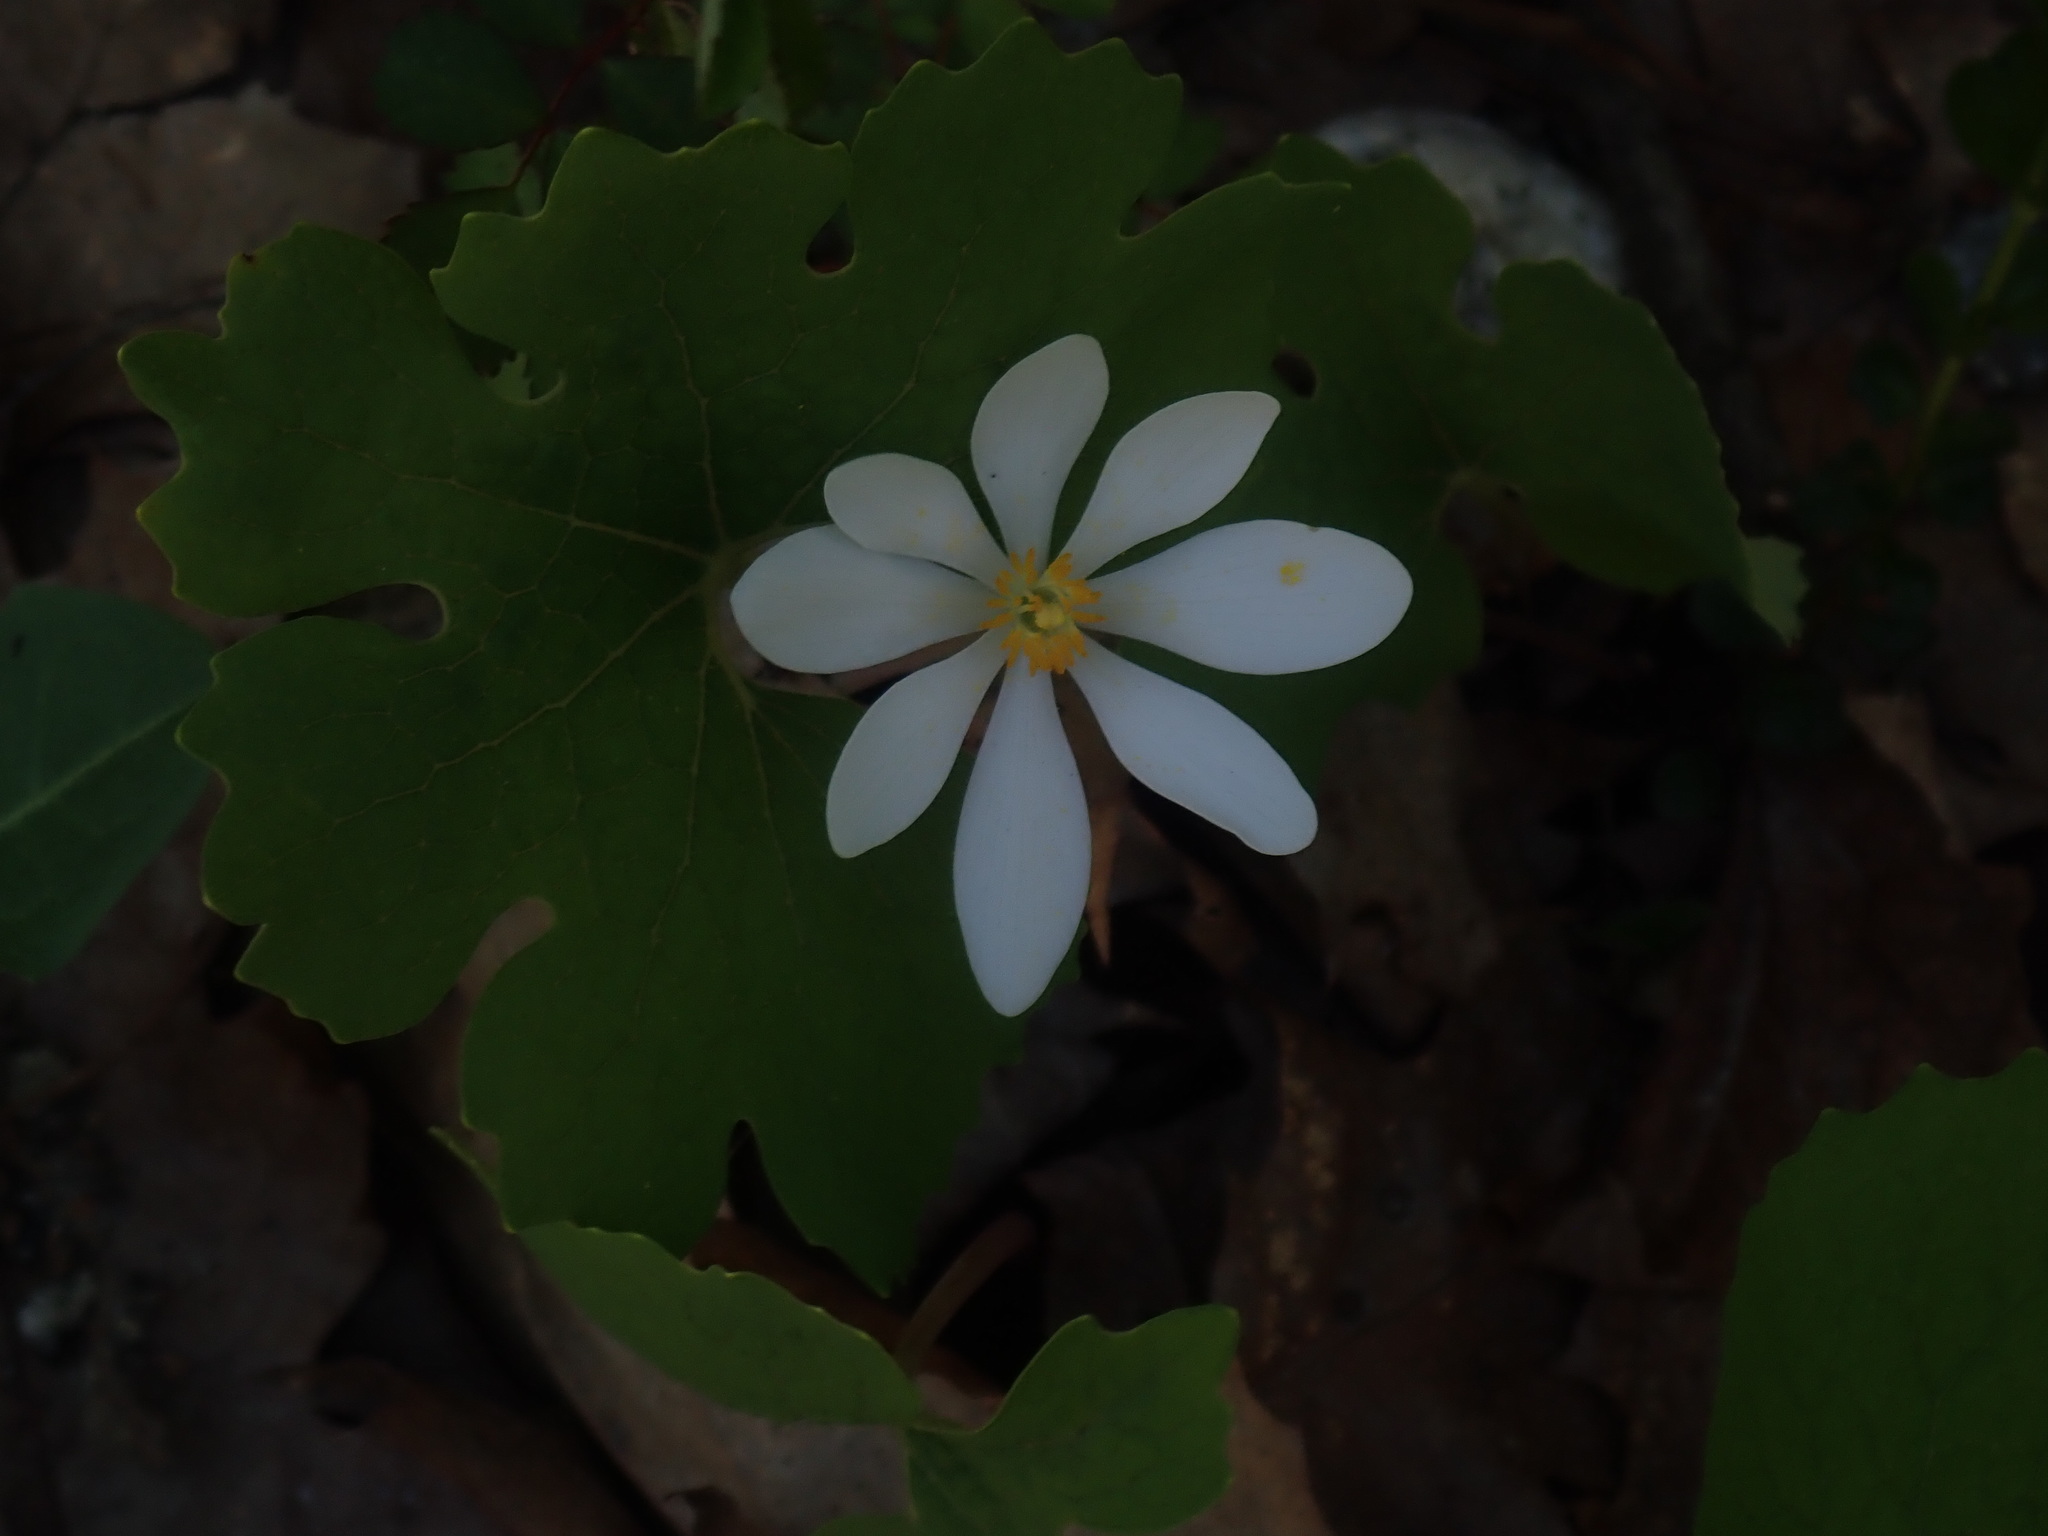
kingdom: Plantae
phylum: Tracheophyta
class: Magnoliopsida
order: Ranunculales
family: Papaveraceae
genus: Sanguinaria
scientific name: Sanguinaria canadensis
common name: Bloodroot
